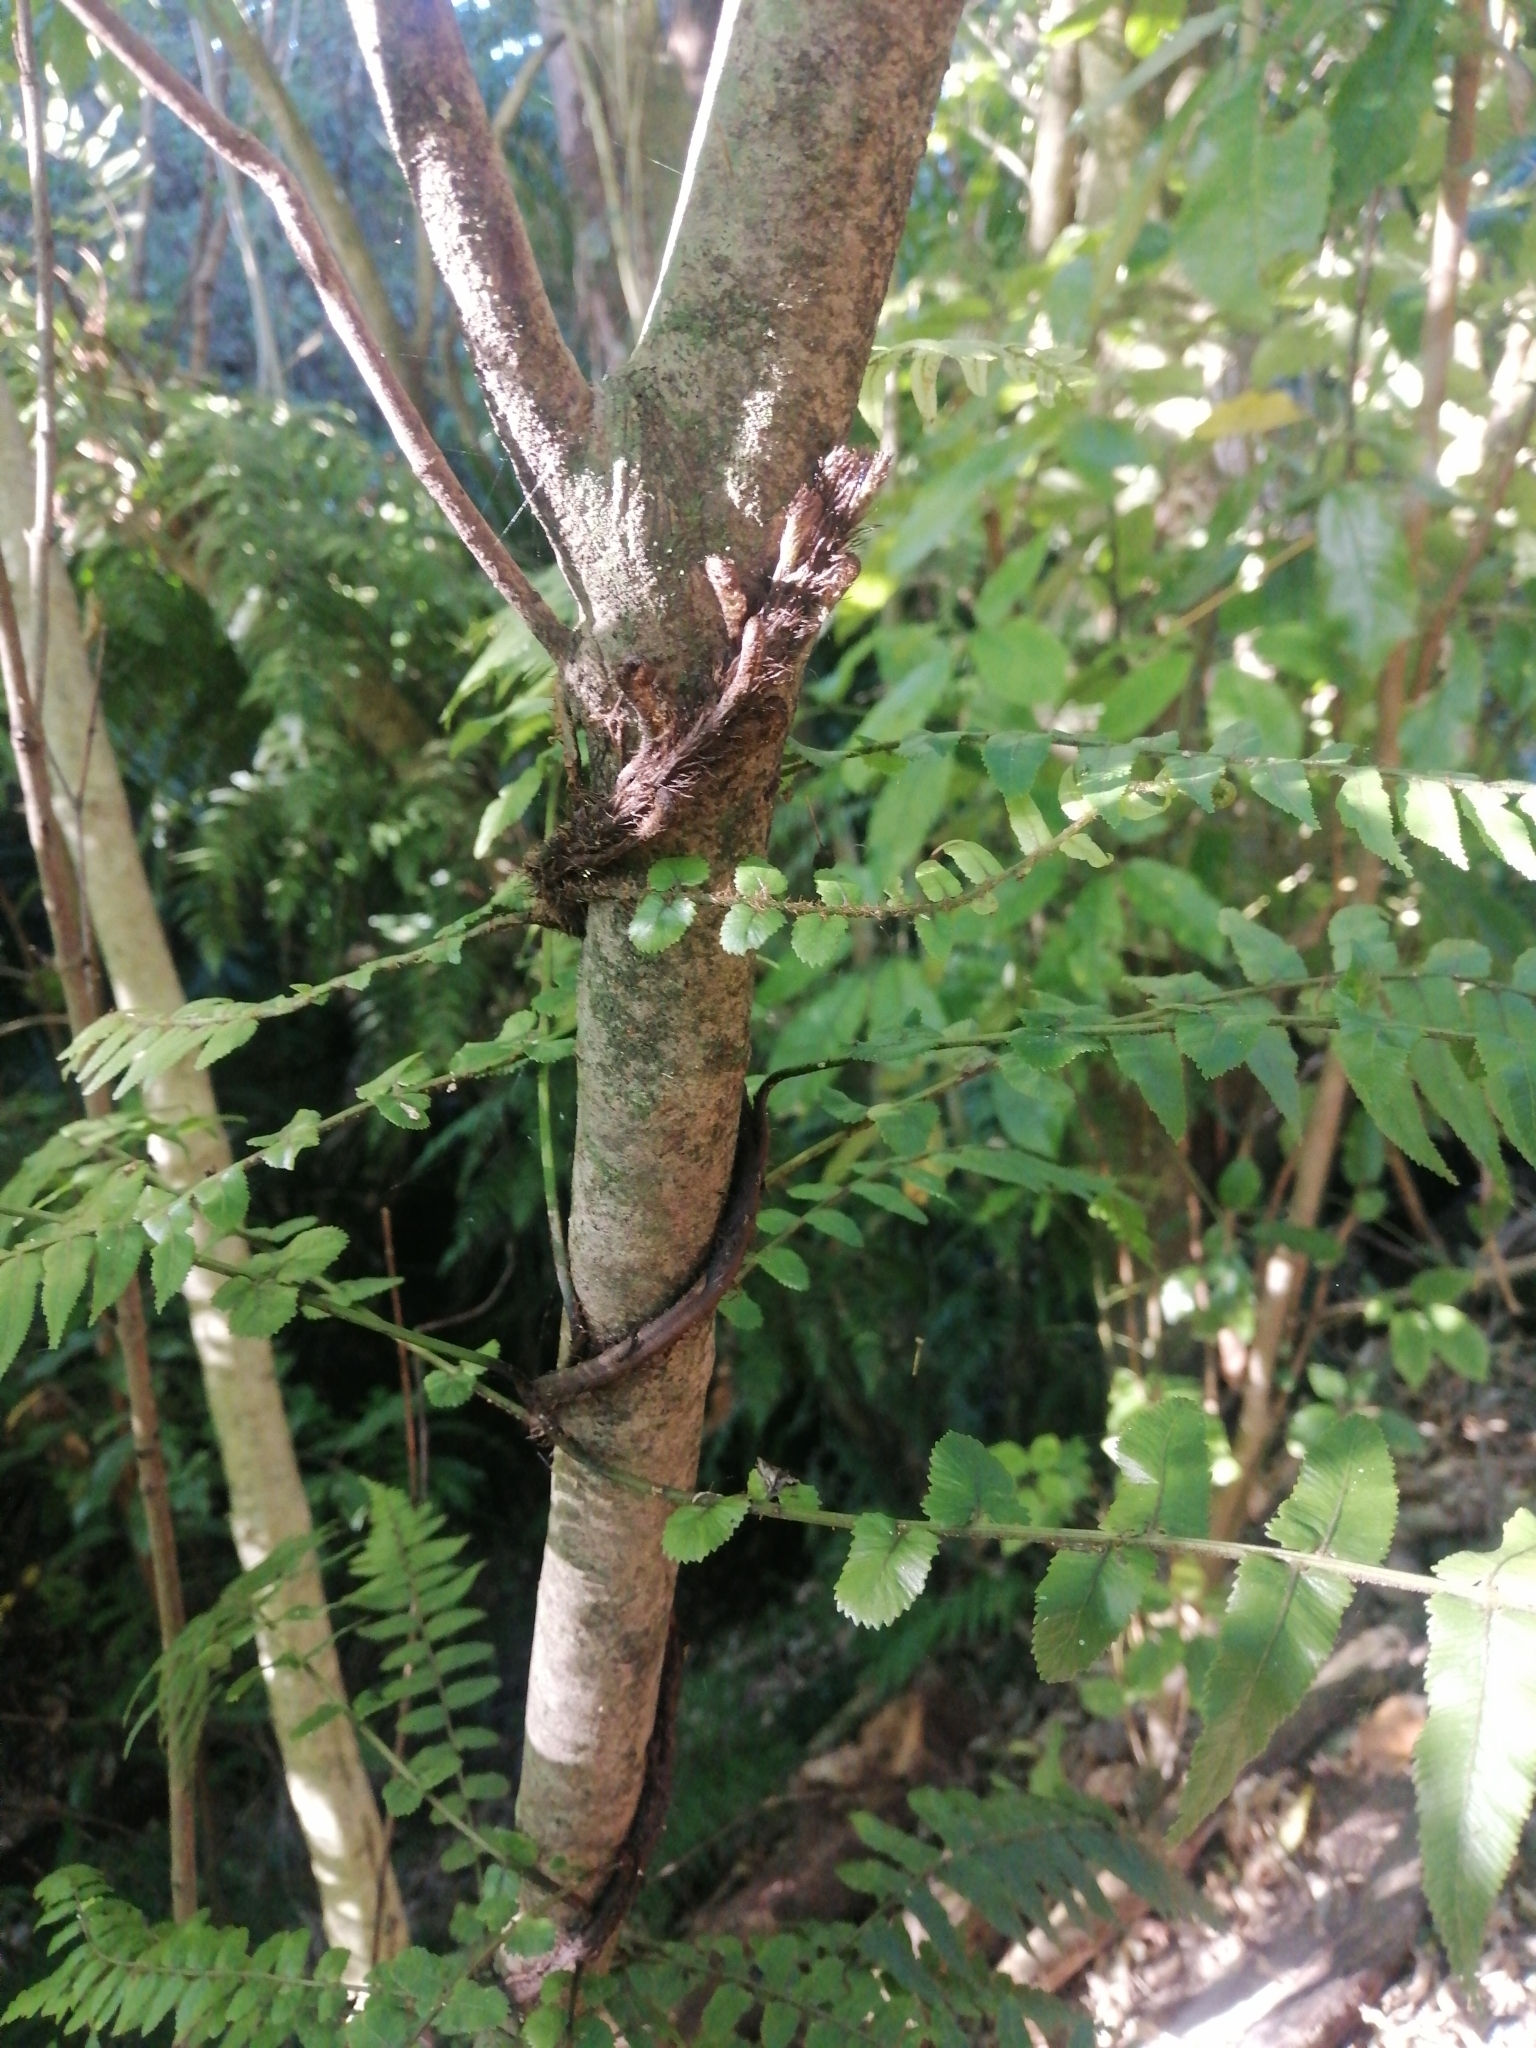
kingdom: Plantae
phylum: Tracheophyta
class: Polypodiopsida
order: Polypodiales
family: Blechnaceae
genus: Icarus
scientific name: Icarus filiformis
